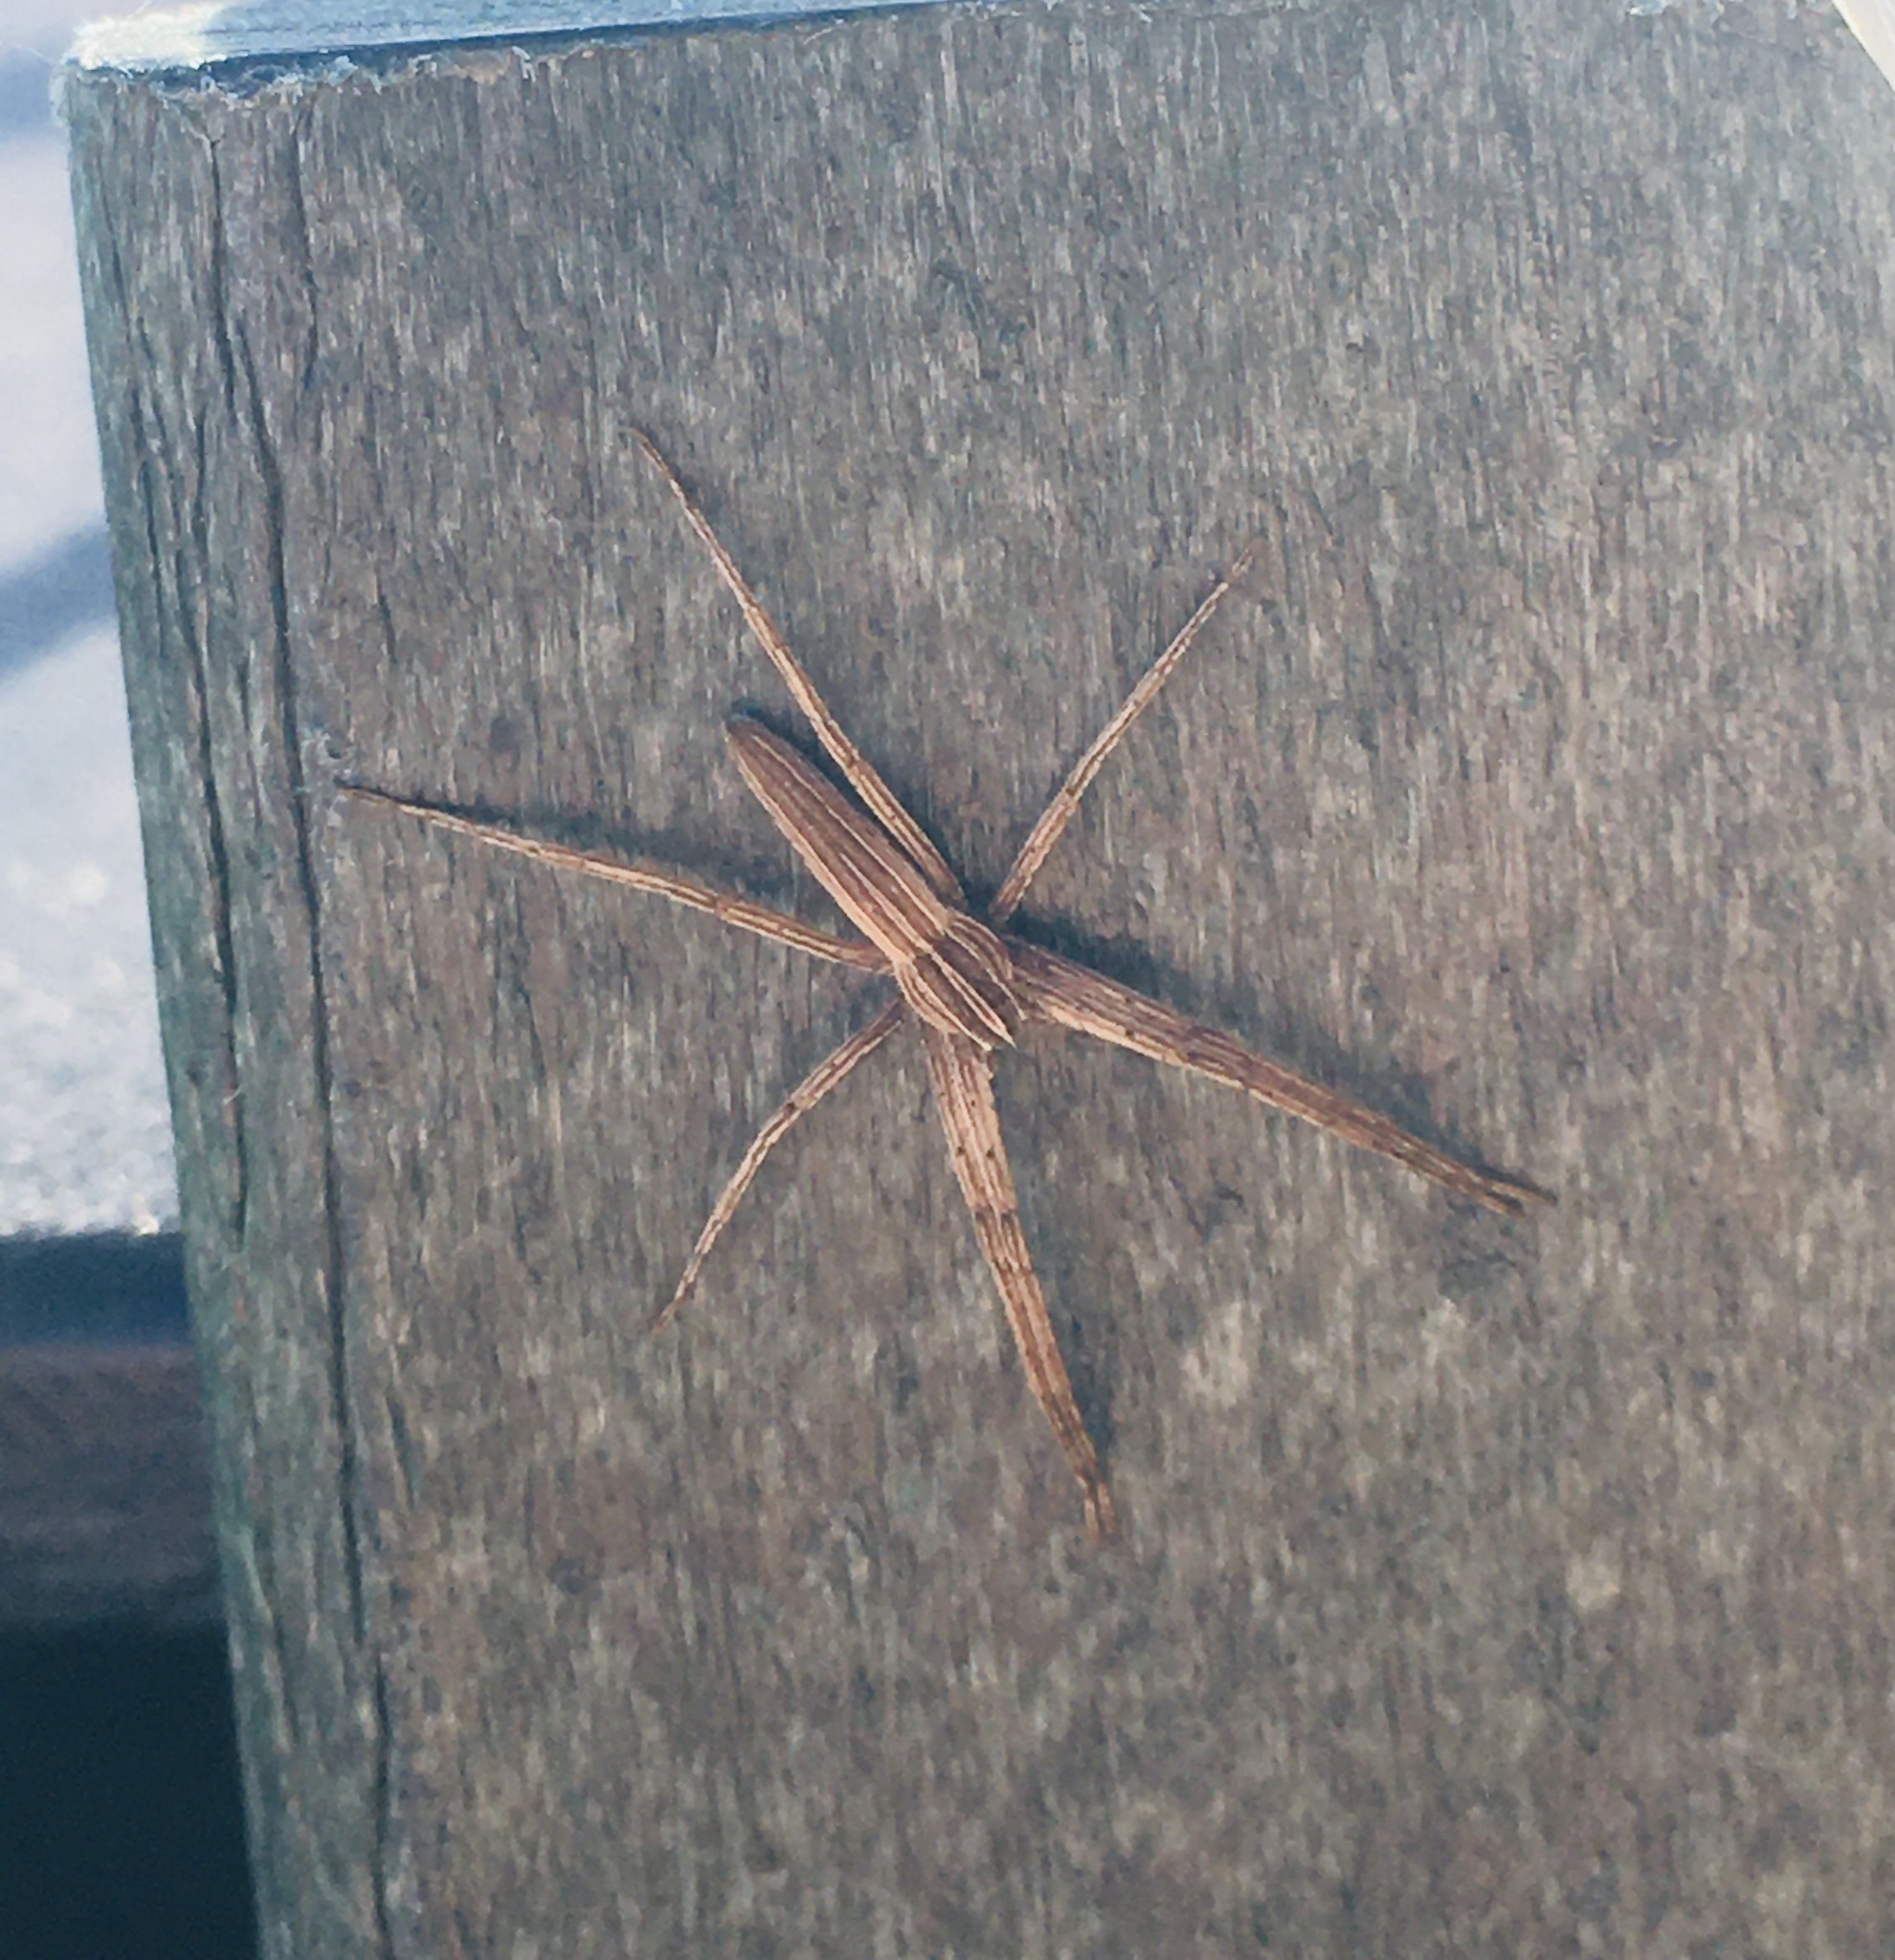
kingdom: Animalia
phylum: Arthropoda
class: Arachnida
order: Araneae
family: Pisauridae
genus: Pisaurina
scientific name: Pisaurina dubia
